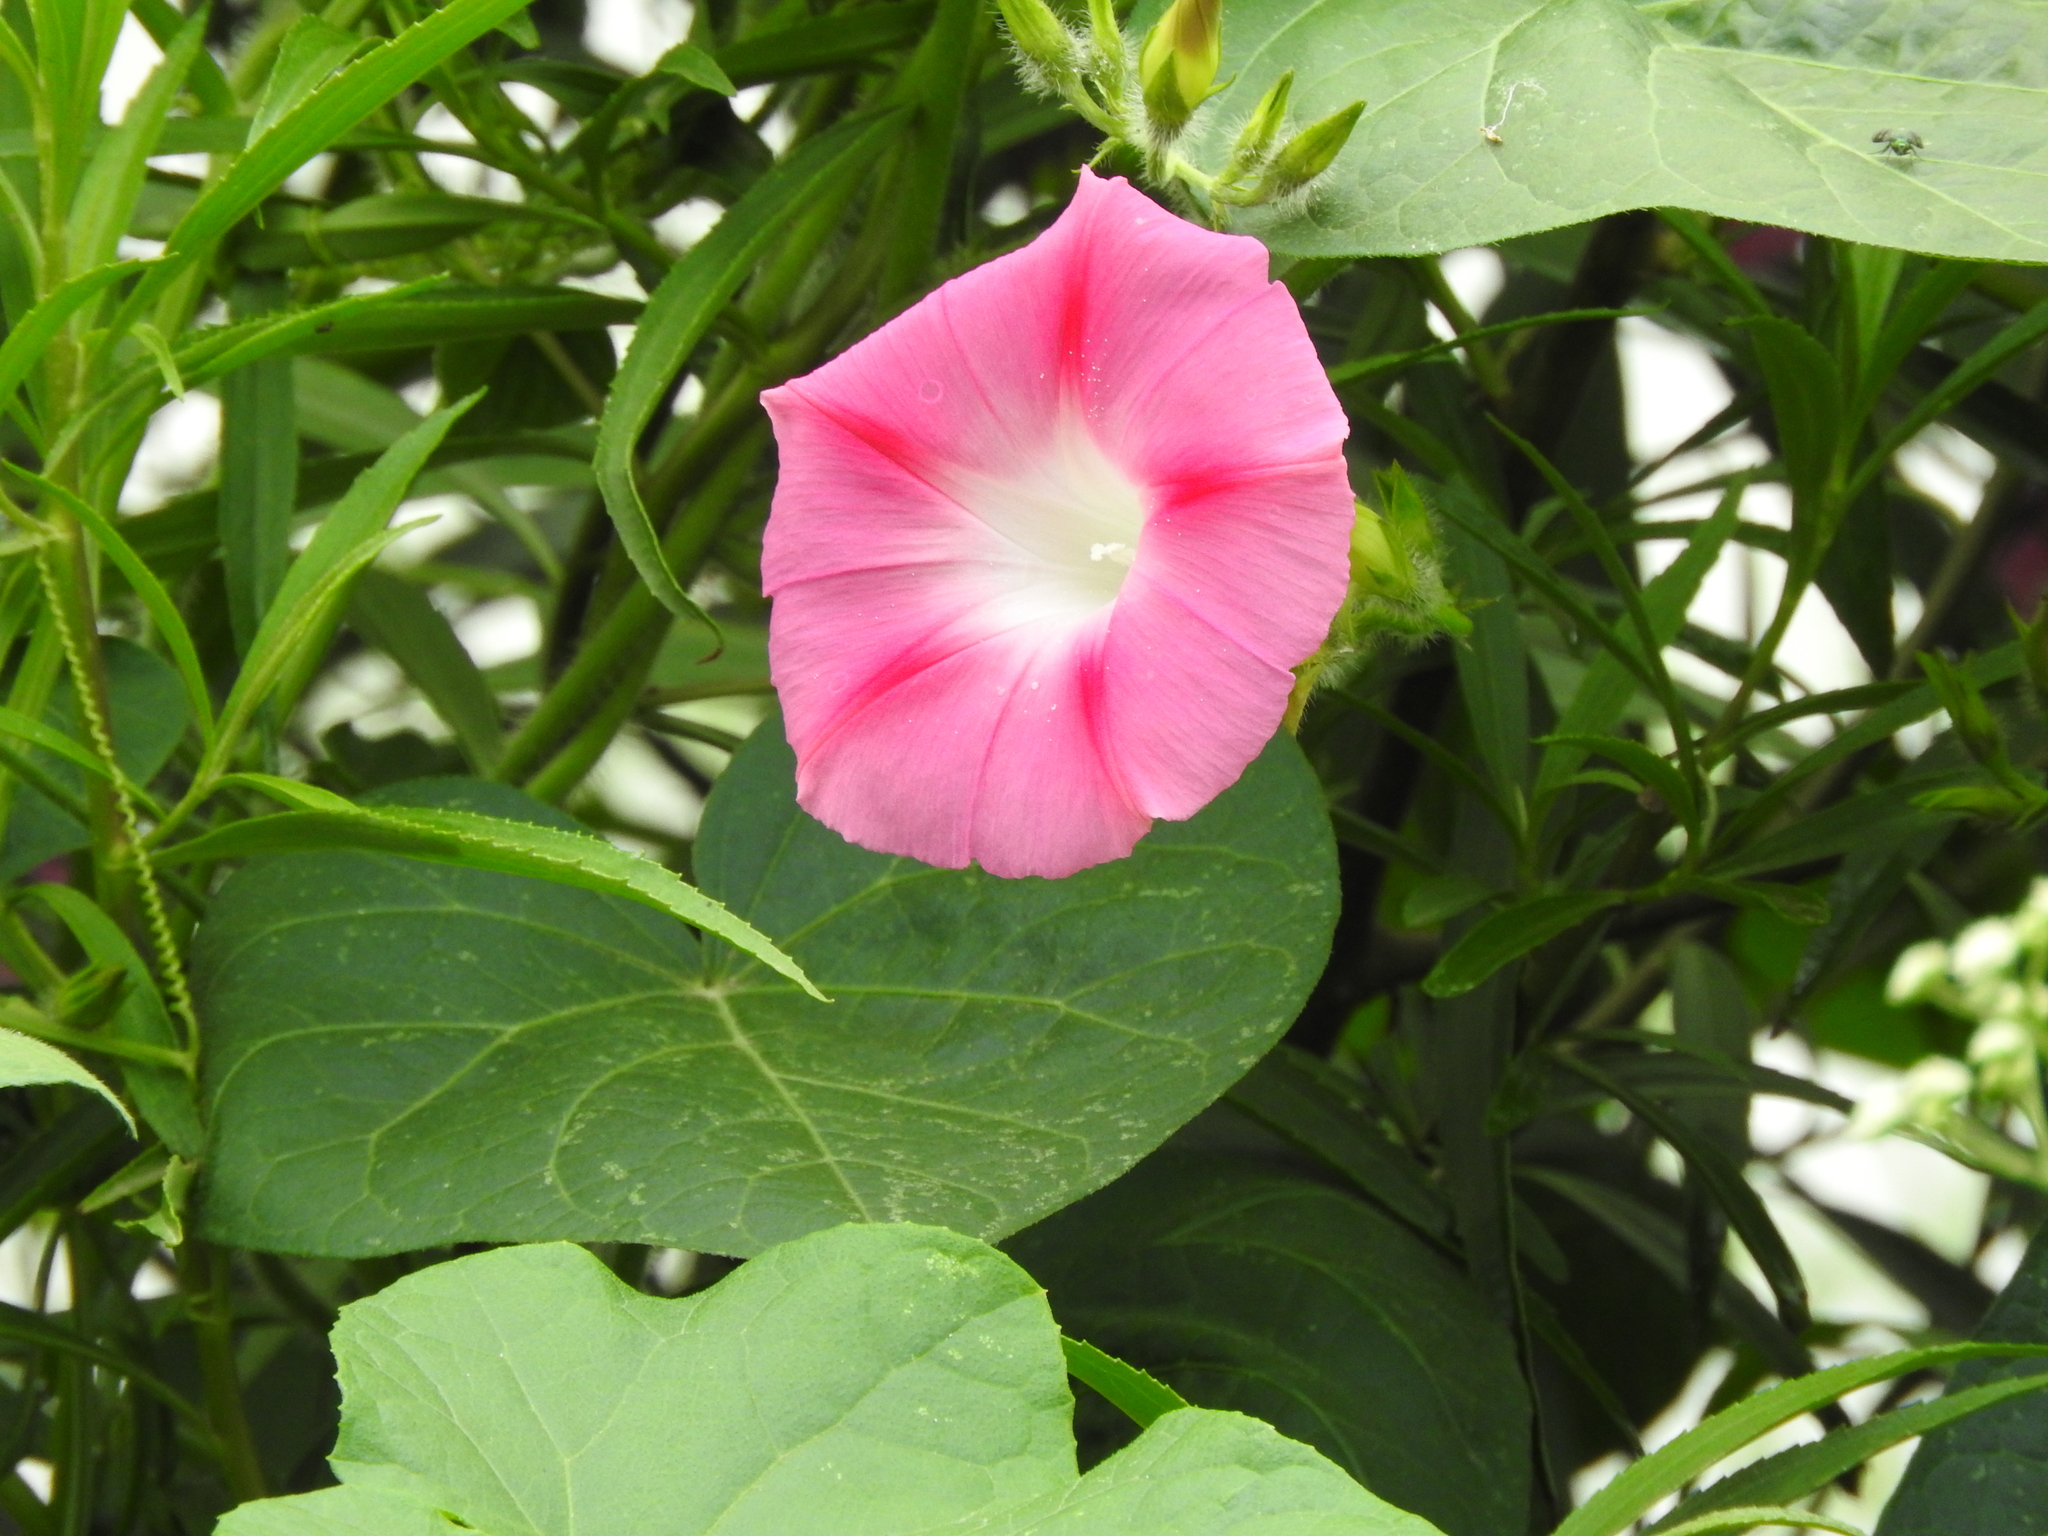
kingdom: Plantae
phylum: Tracheophyta
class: Magnoliopsida
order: Solanales
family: Convolvulaceae
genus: Ipomoea
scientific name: Ipomoea purpurea
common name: Common morning-glory
